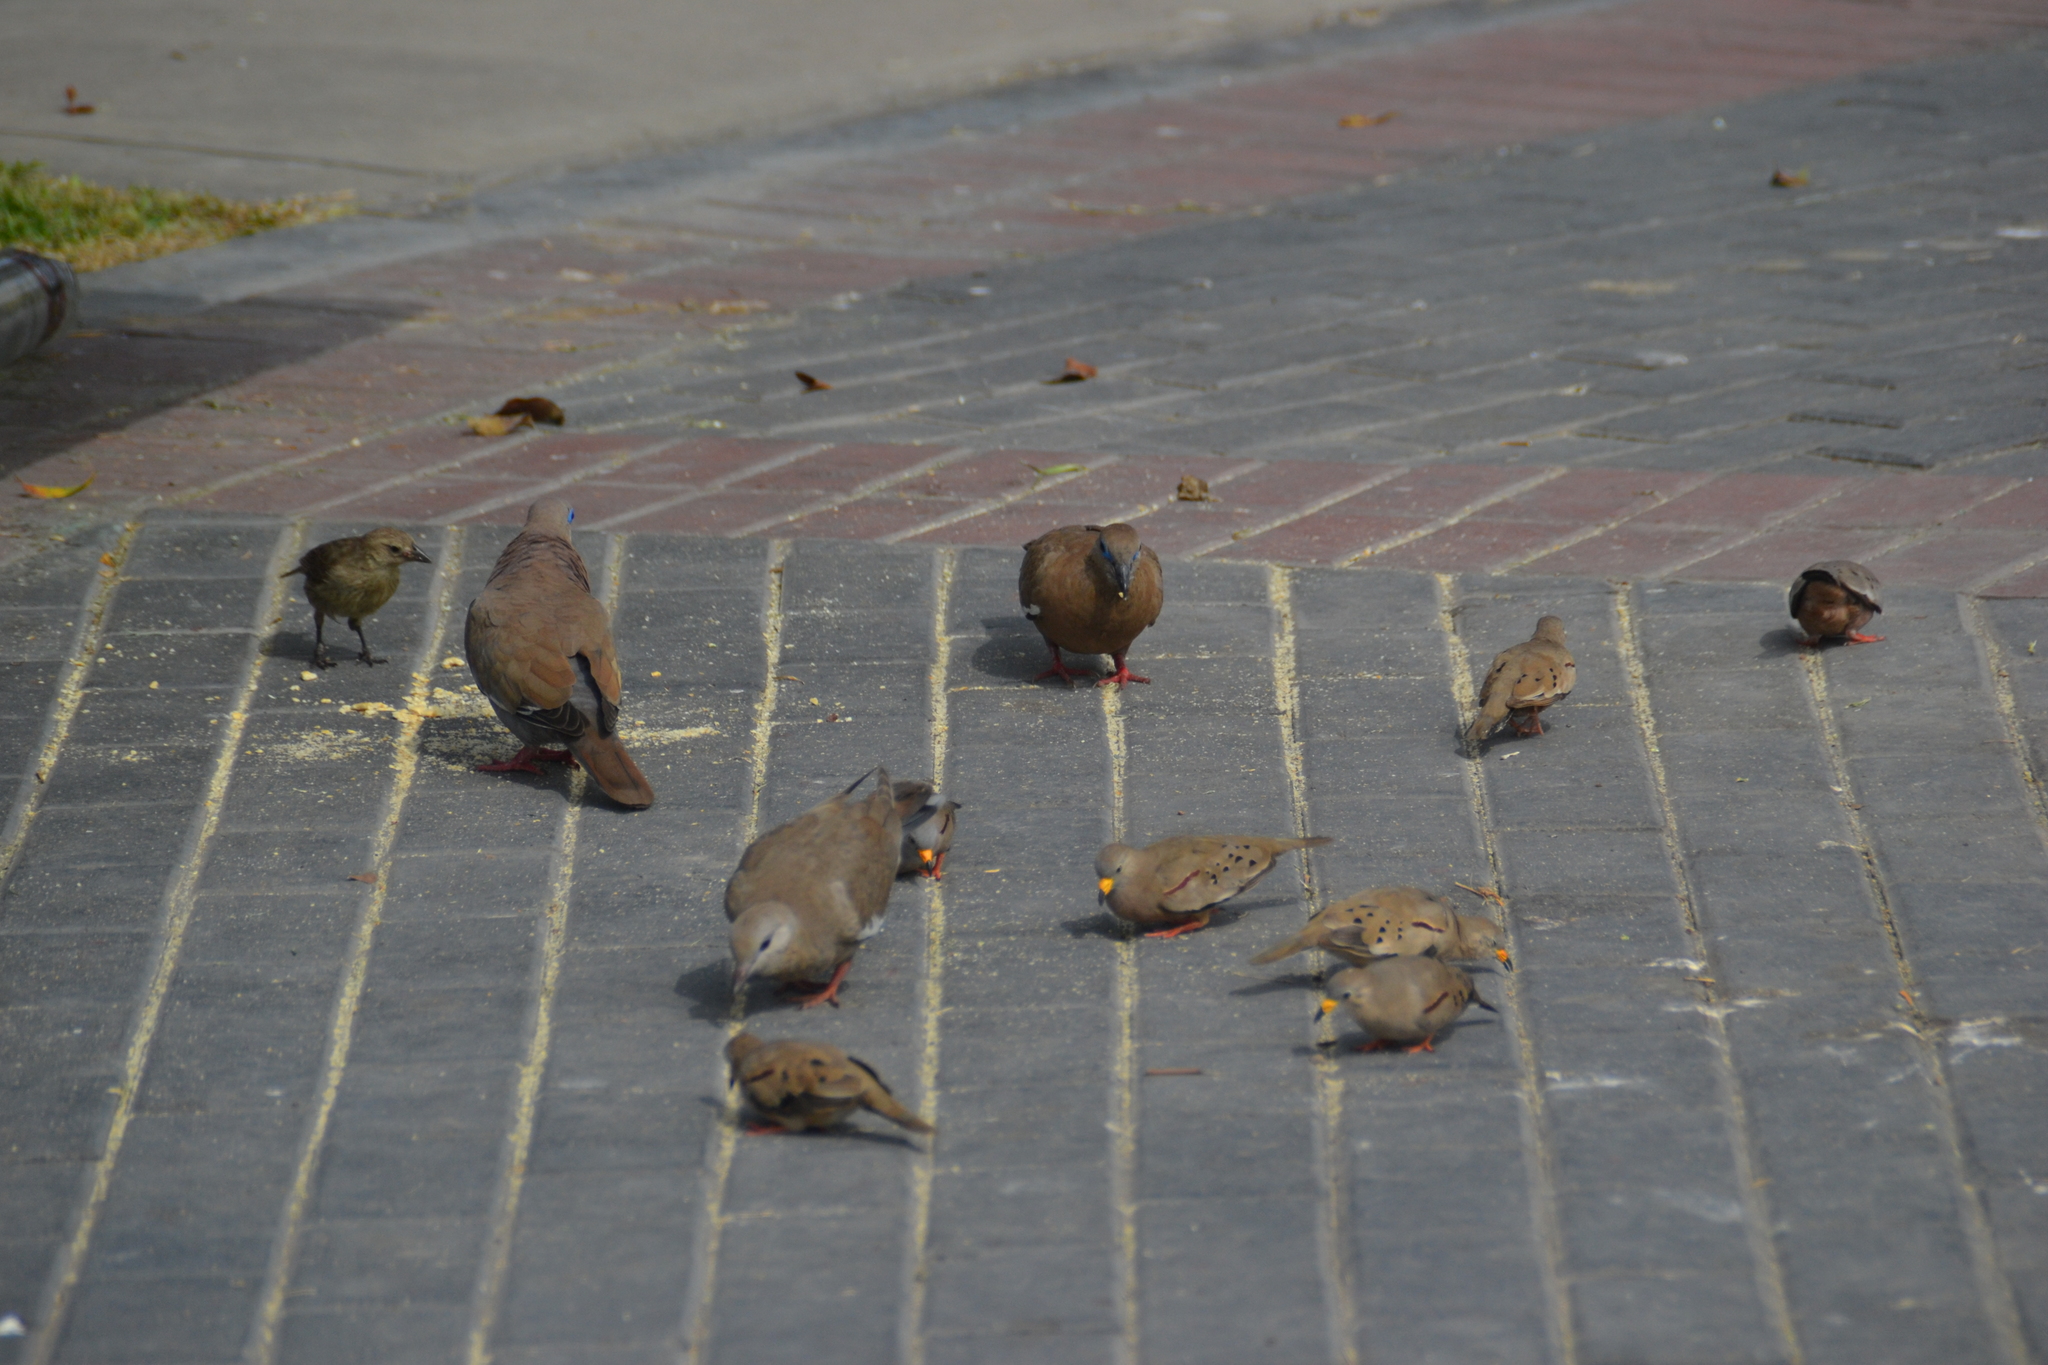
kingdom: Animalia
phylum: Chordata
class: Aves
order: Columbiformes
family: Columbidae
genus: Columbina
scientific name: Columbina cruziana
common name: Croaking ground dove
